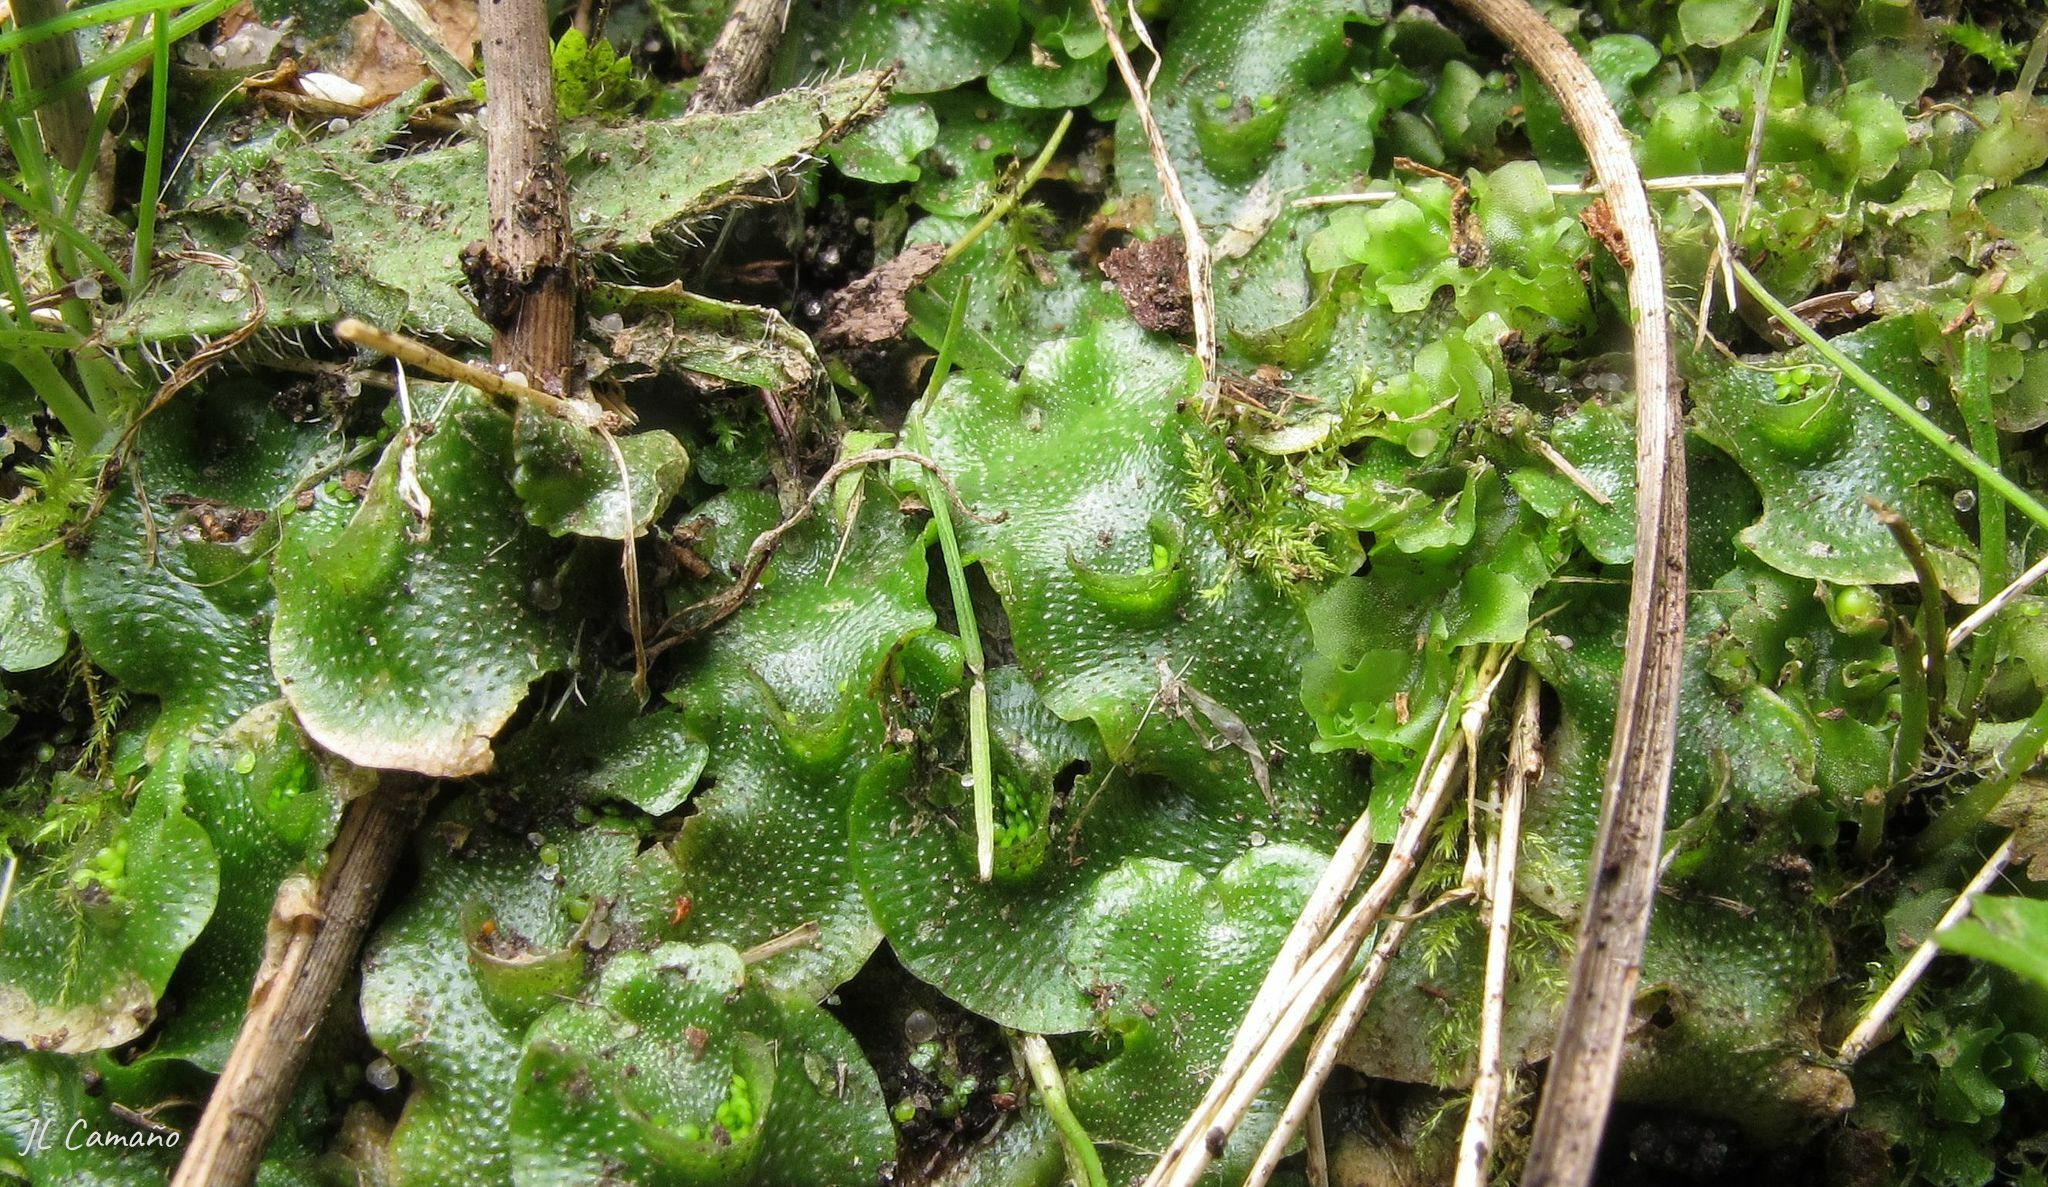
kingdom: Plantae
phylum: Marchantiophyta
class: Marchantiopsida
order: Lunulariales
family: Lunulariaceae
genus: Lunularia
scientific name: Lunularia cruciata
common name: Crescent-cup liverwort
